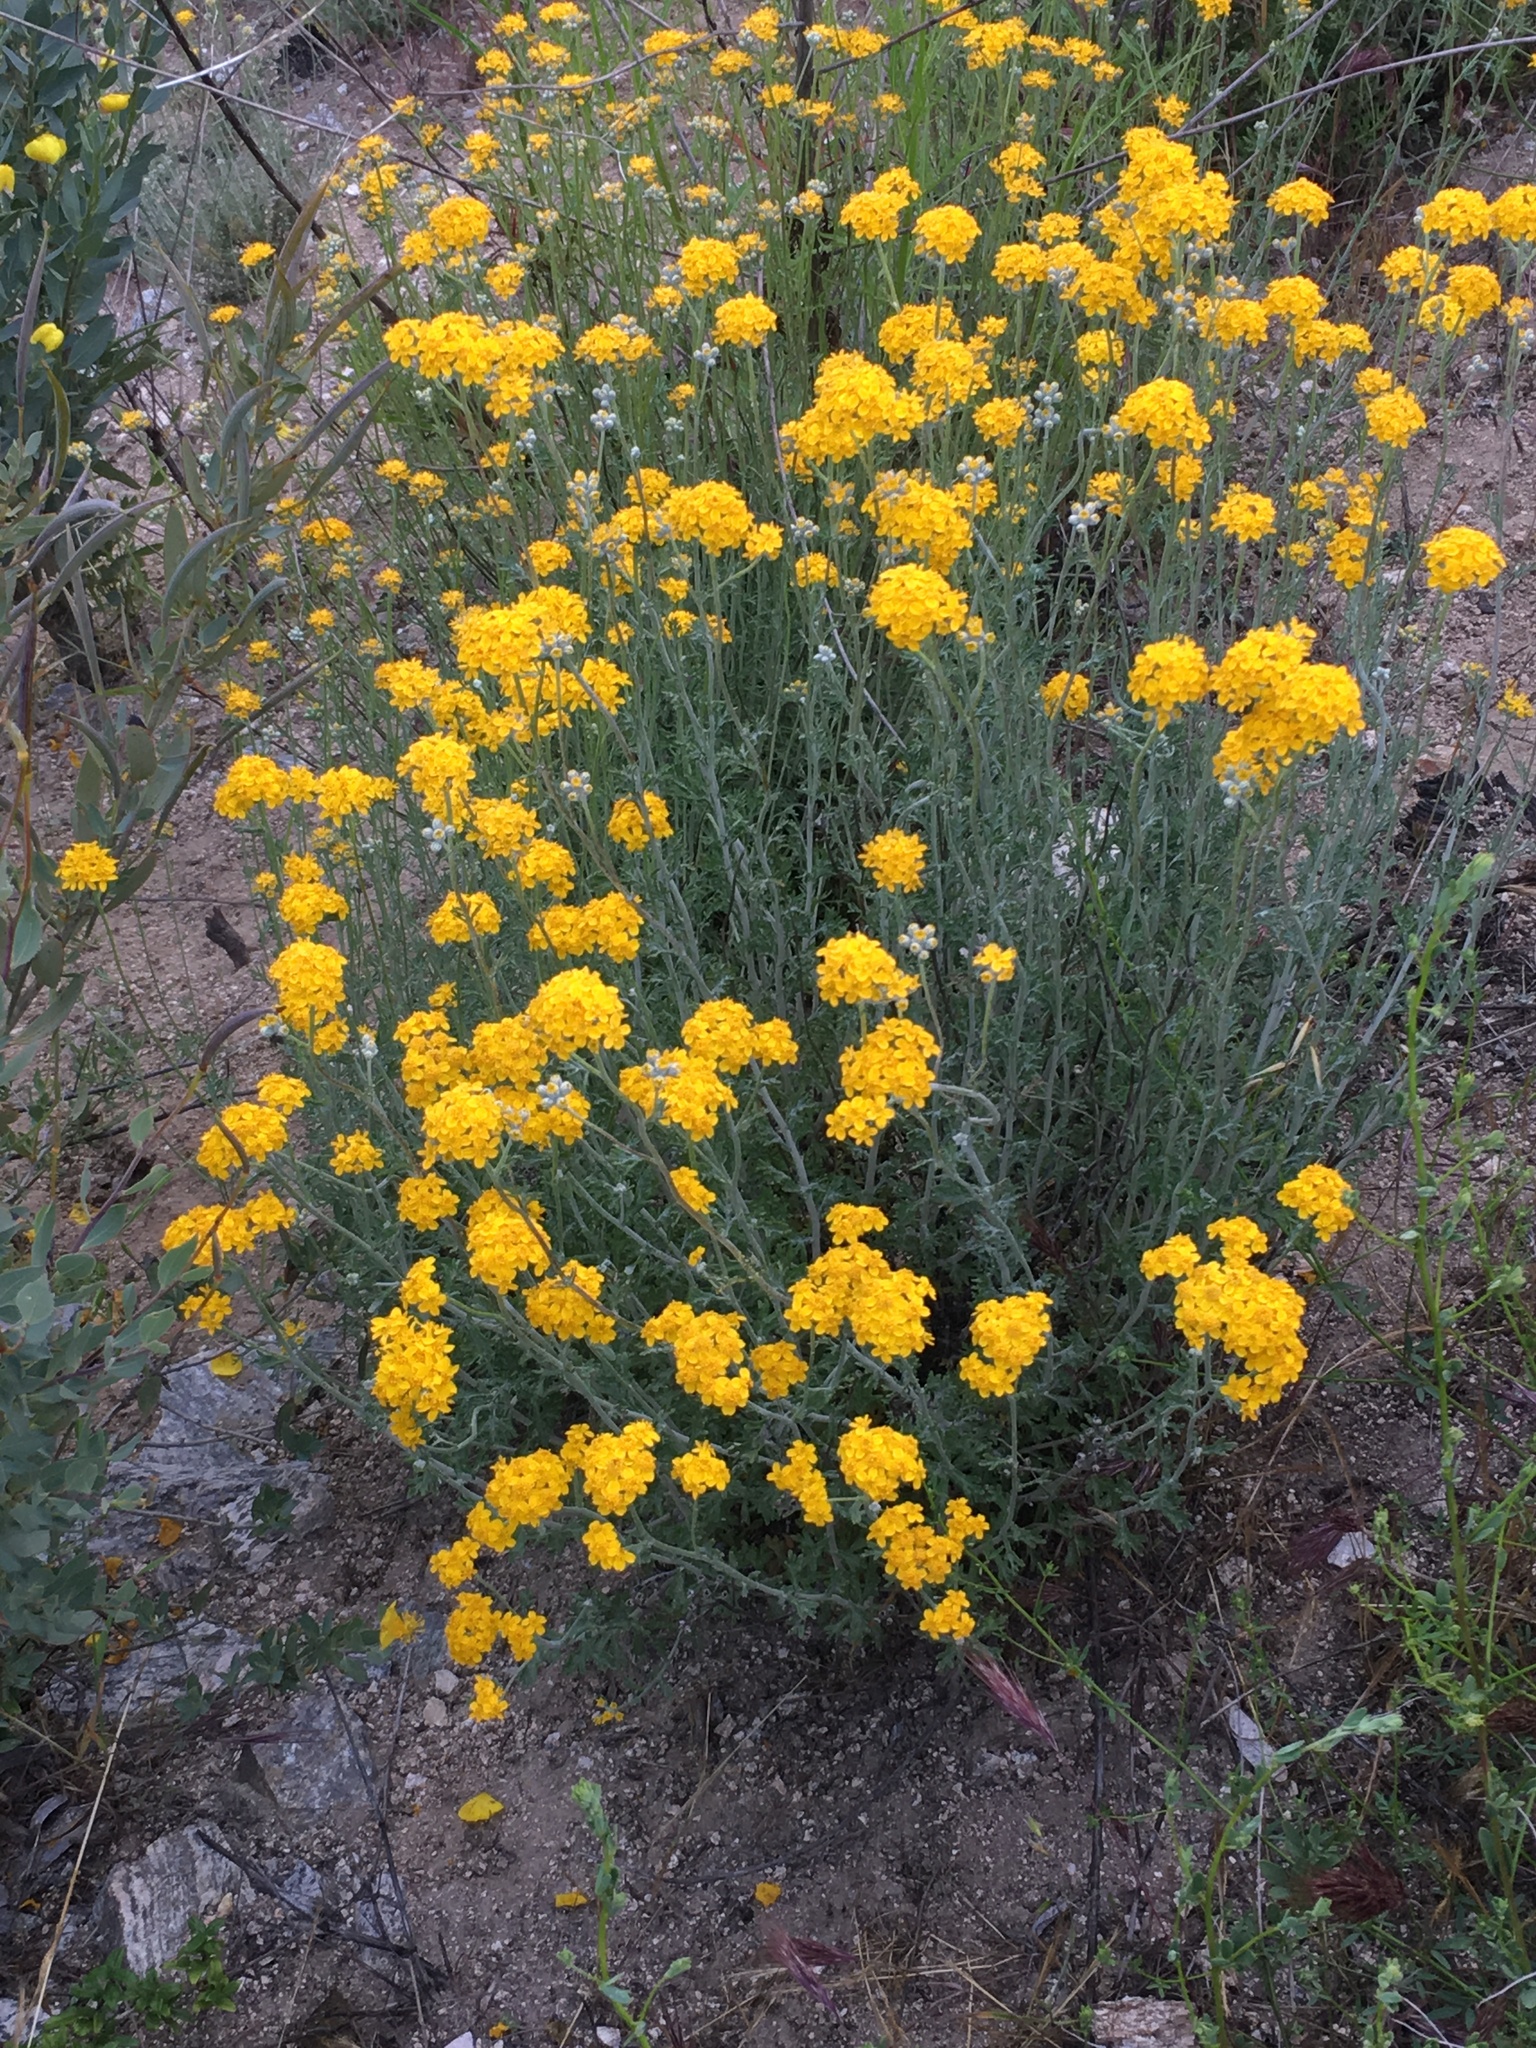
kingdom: Plantae
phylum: Tracheophyta
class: Magnoliopsida
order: Asterales
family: Asteraceae
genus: Eriophyllum
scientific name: Eriophyllum confertiflorum
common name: Golden-yarrow
